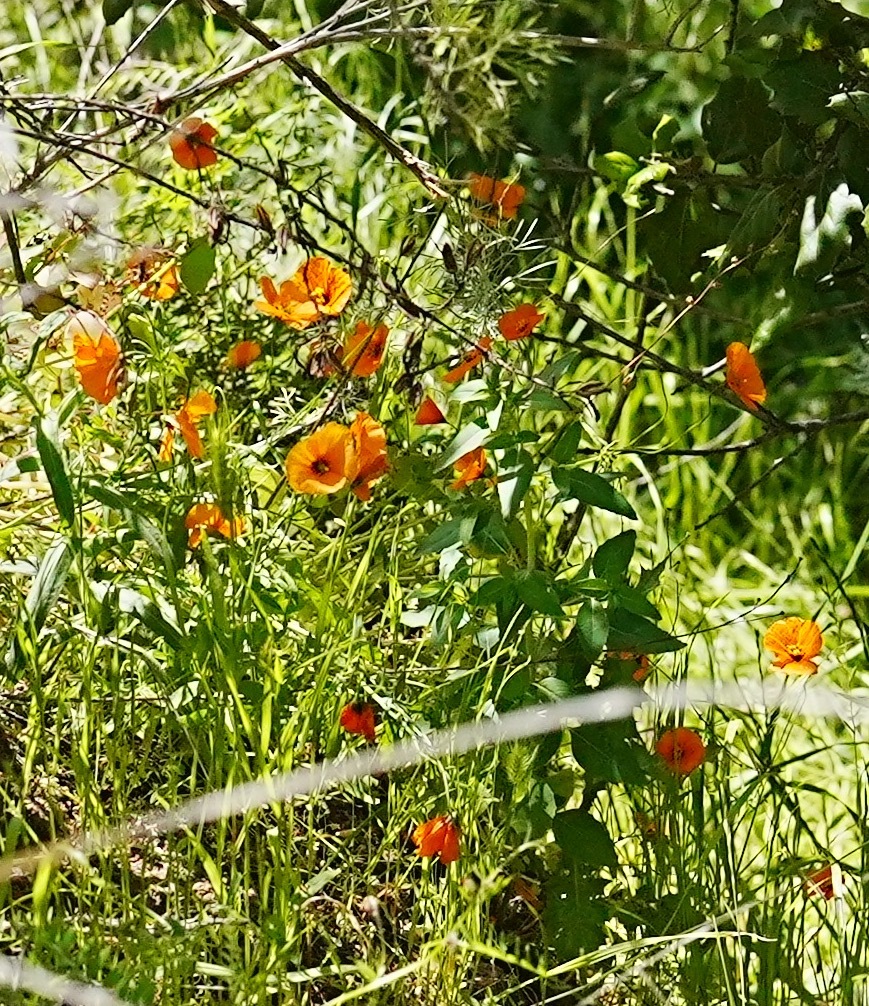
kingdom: Plantae
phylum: Tracheophyta
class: Magnoliopsida
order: Ranunculales
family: Papaveraceae
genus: Stylomecon
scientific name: Stylomecon heterophylla
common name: Flaming-poppy
